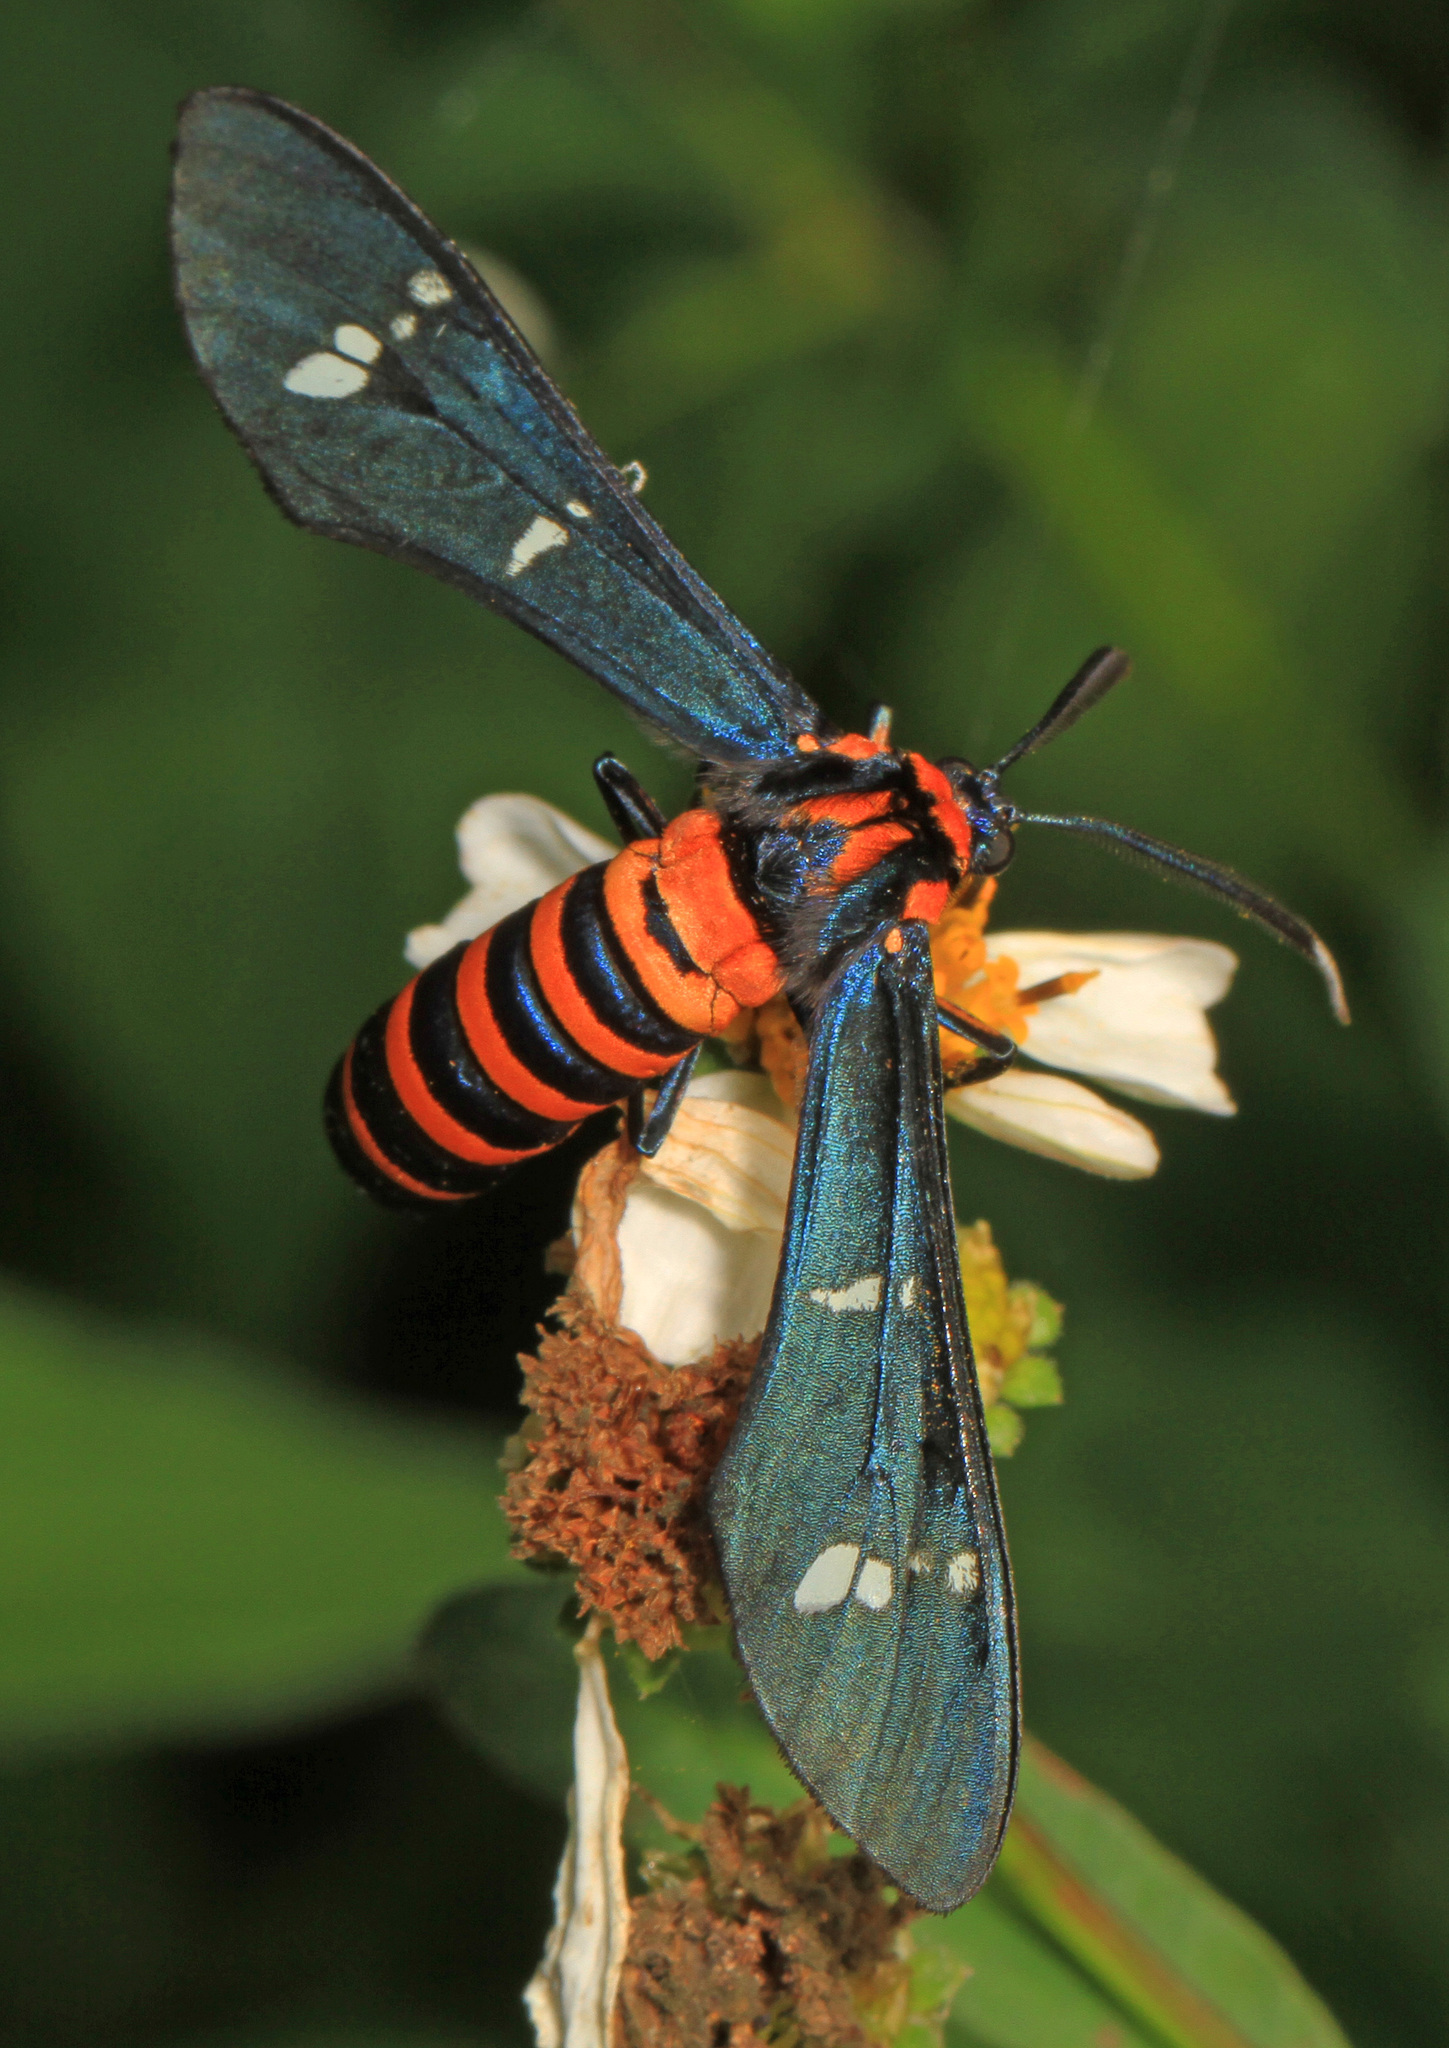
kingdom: Animalia
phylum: Arthropoda
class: Insecta
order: Lepidoptera
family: Erebidae
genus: Syntomeida
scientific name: Syntomeida ipomoeae
